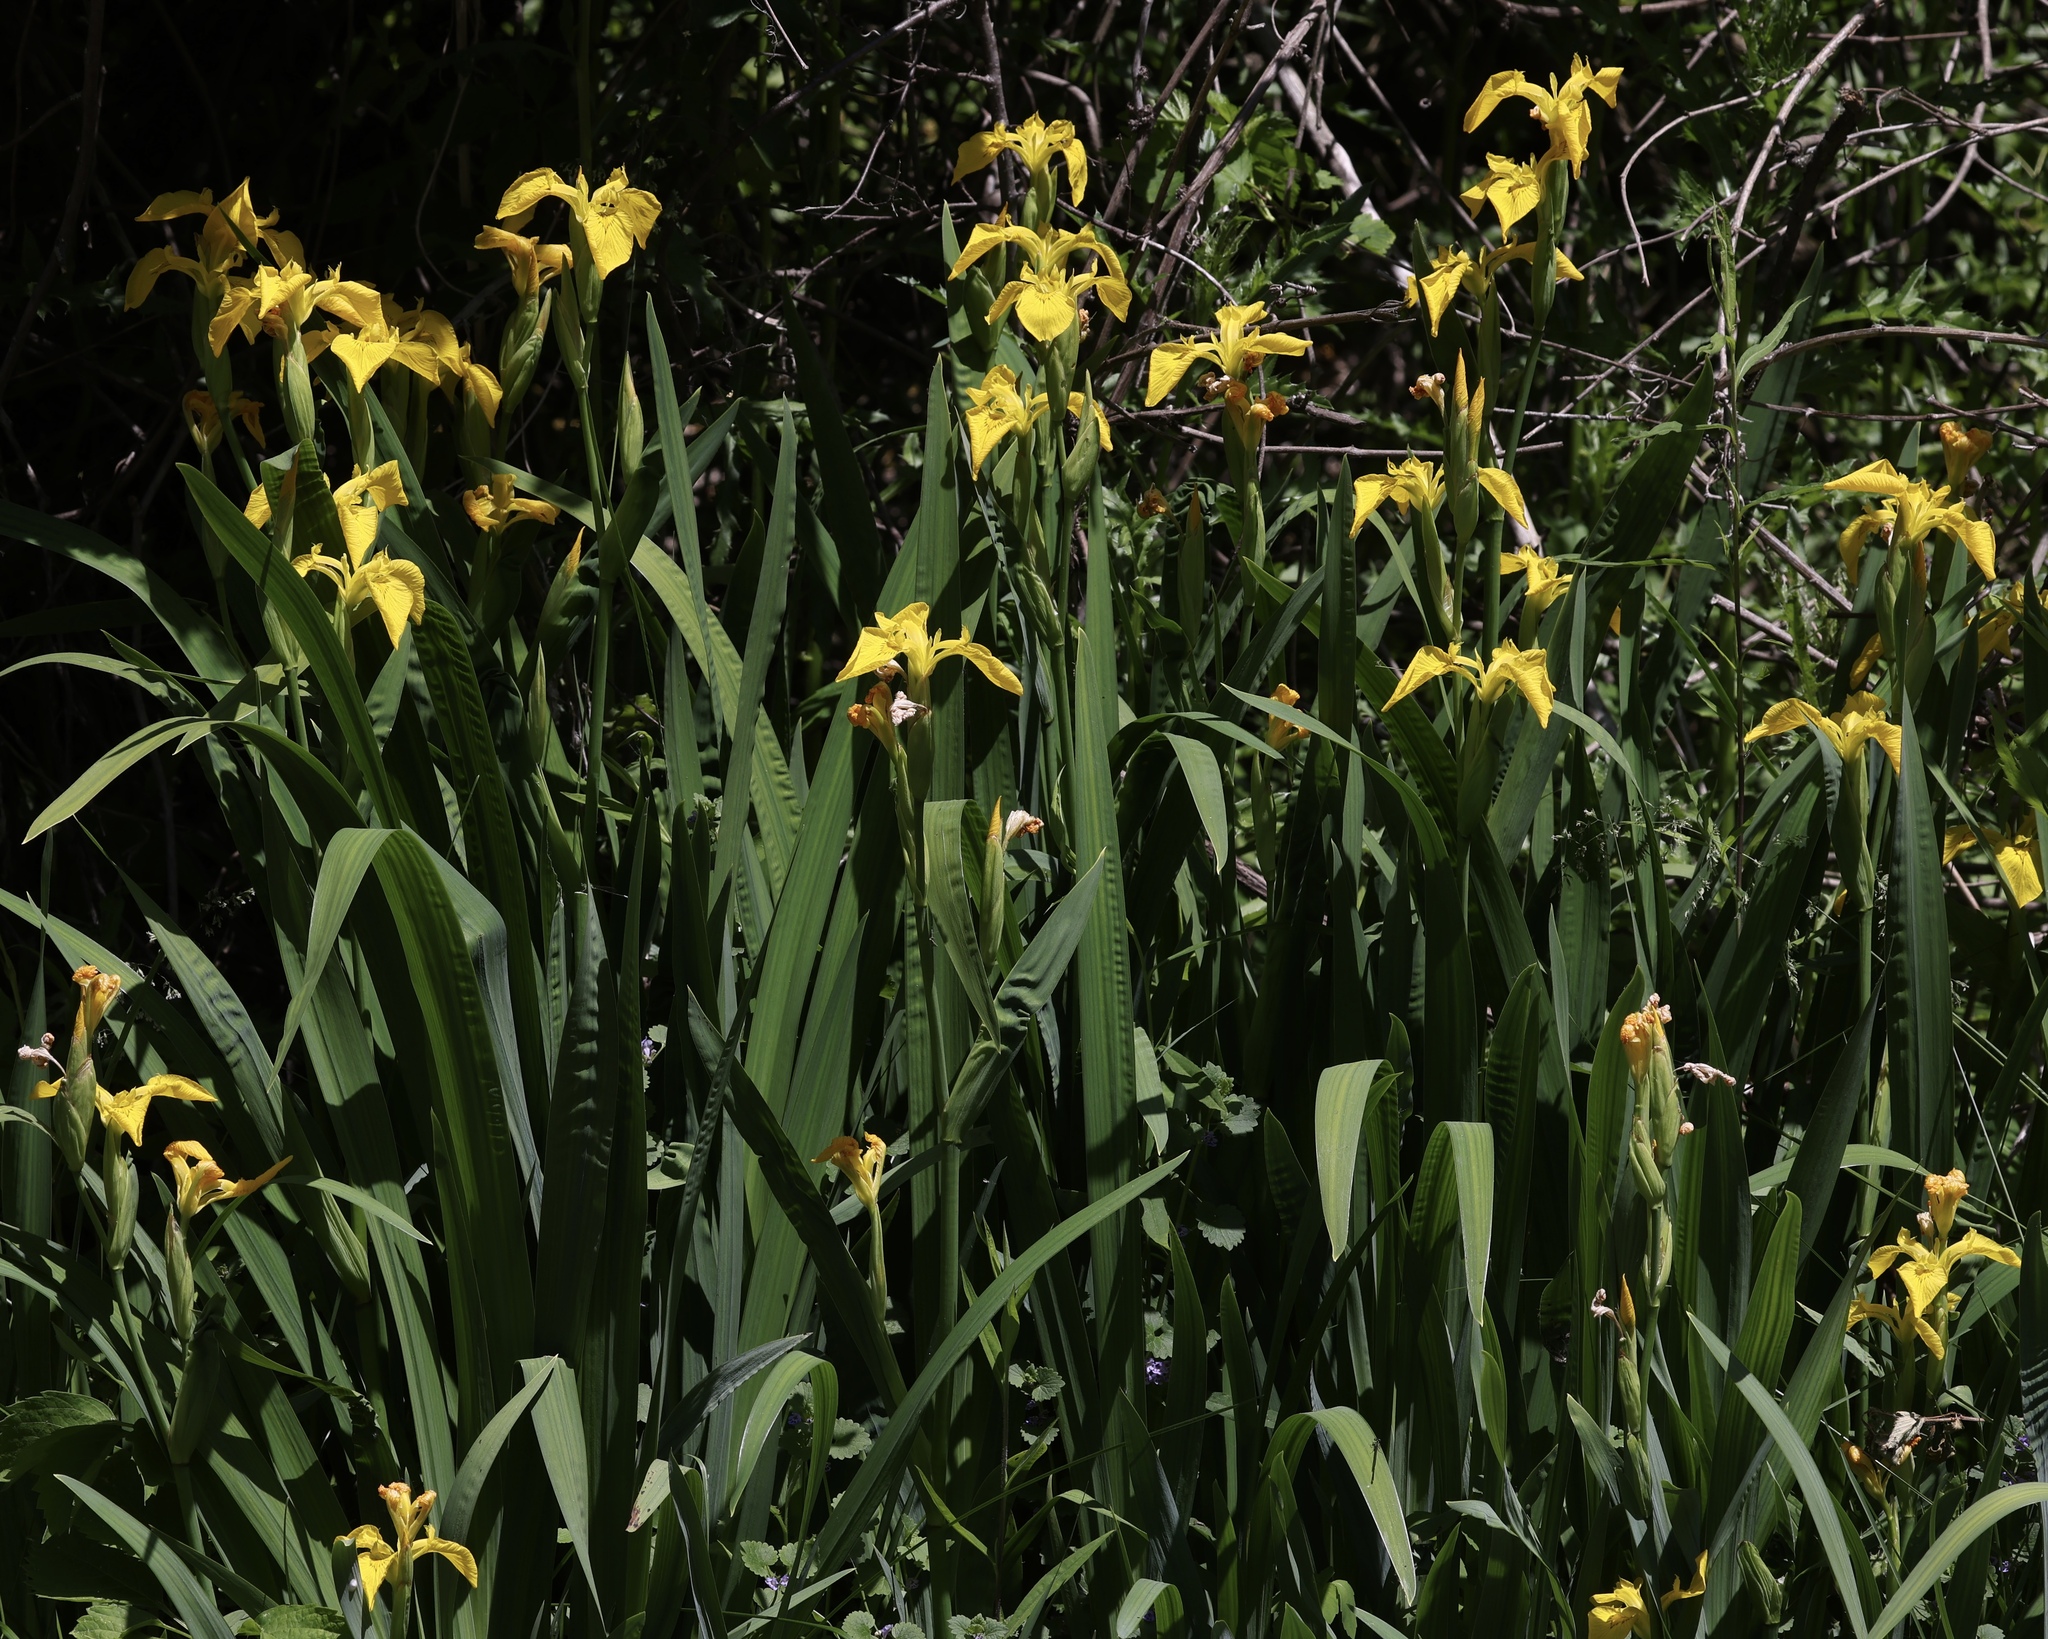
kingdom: Plantae
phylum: Tracheophyta
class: Liliopsida
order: Asparagales
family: Iridaceae
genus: Iris
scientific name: Iris pseudacorus
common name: Yellow flag
